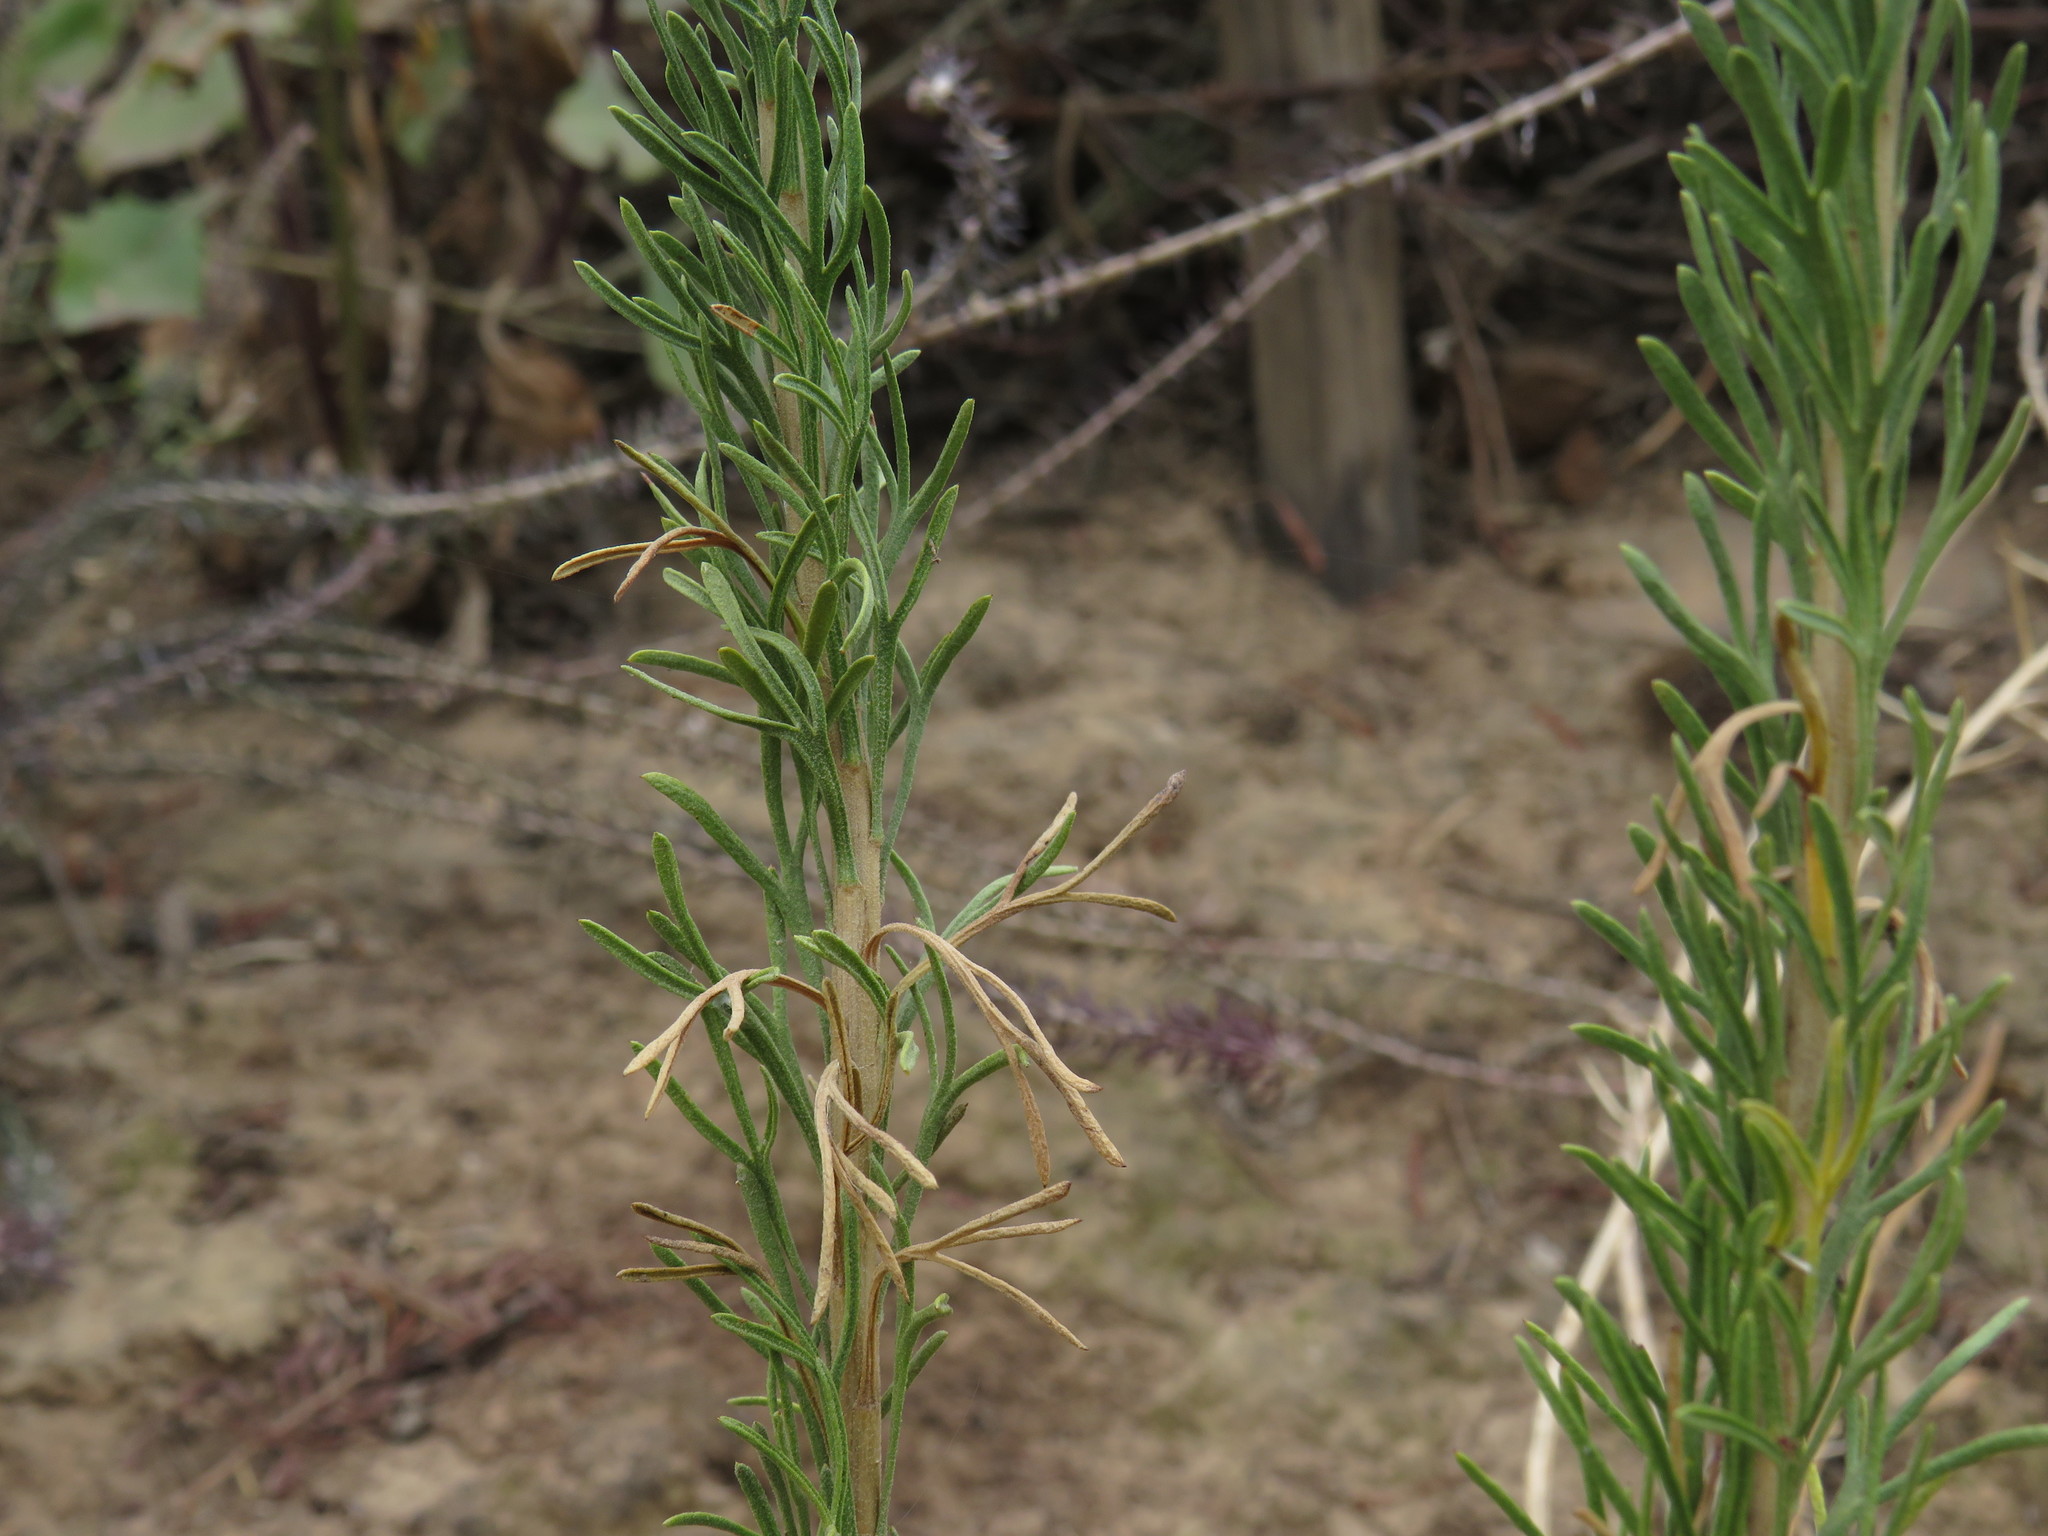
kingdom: Plantae
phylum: Tracheophyta
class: Magnoliopsida
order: Asterales
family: Asteraceae
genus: Athanasia
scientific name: Athanasia trifurcata
